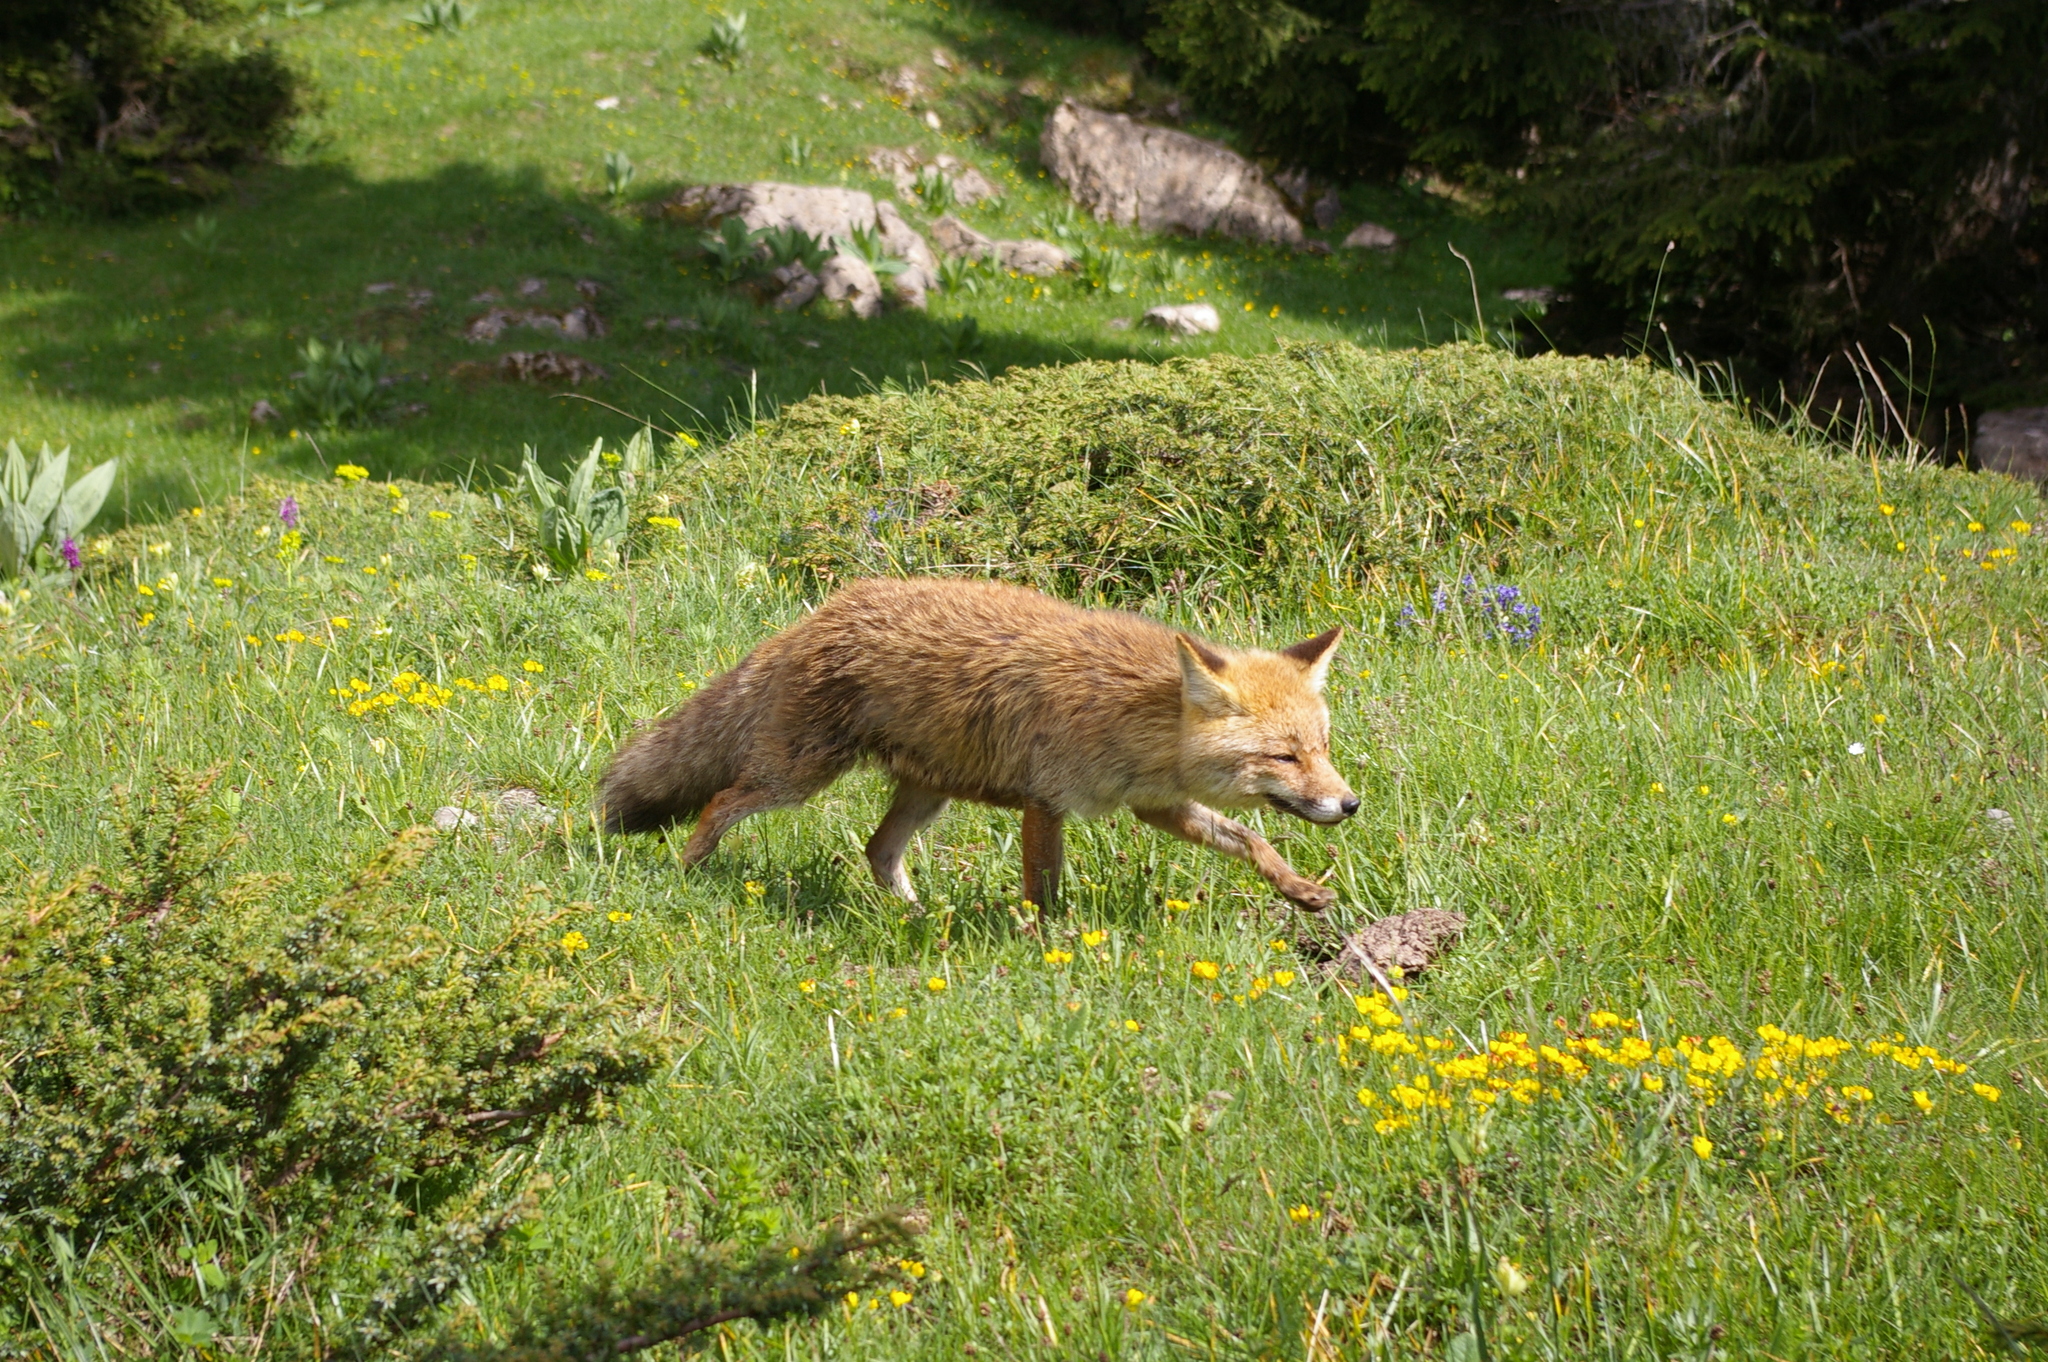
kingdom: Animalia
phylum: Chordata
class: Mammalia
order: Carnivora
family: Canidae
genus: Vulpes
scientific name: Vulpes vulpes
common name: Red fox
